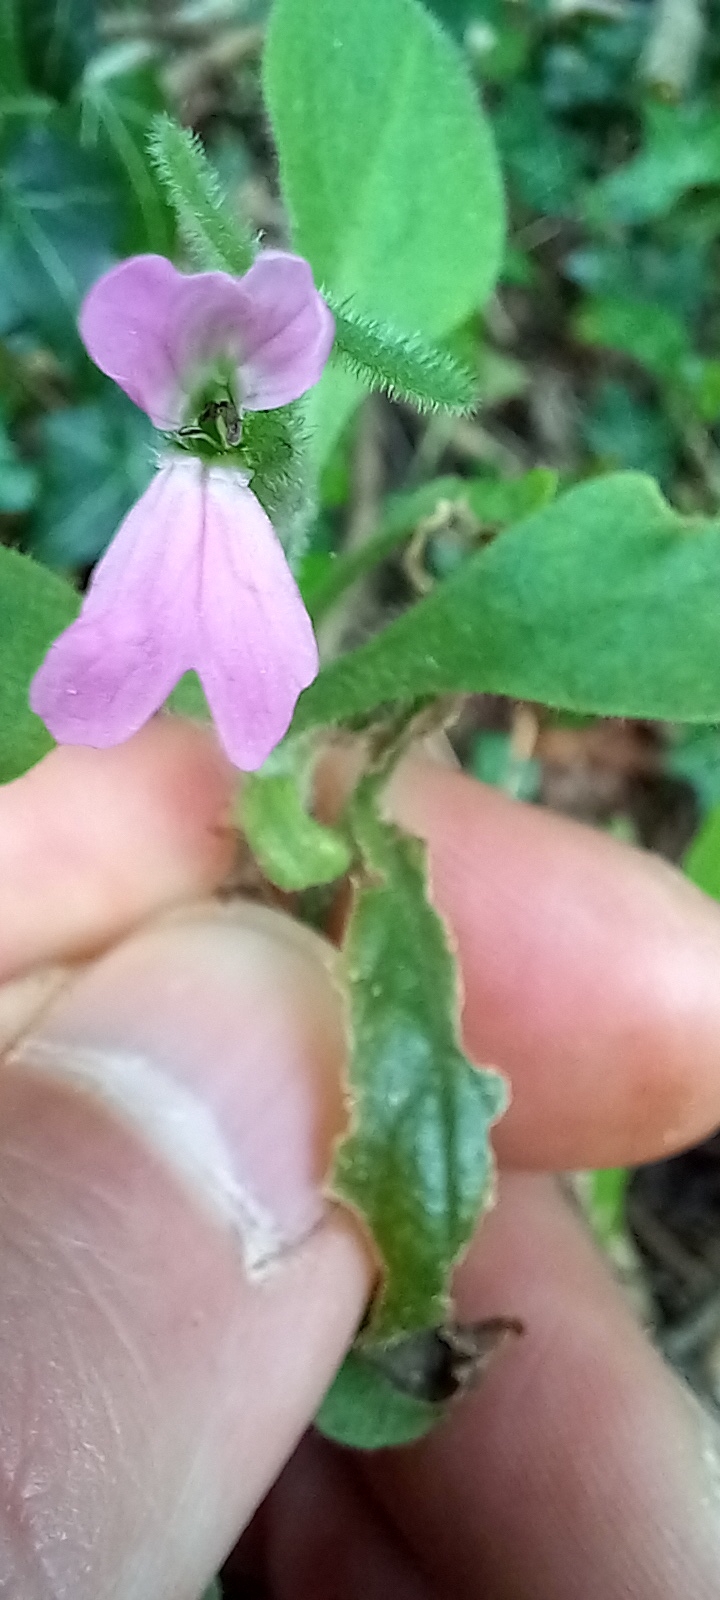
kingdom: Plantae
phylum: Tracheophyta
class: Magnoliopsida
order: Caryophyllales
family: Caryophyllaceae
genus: Silene
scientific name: Silene dioica
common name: Red campion
